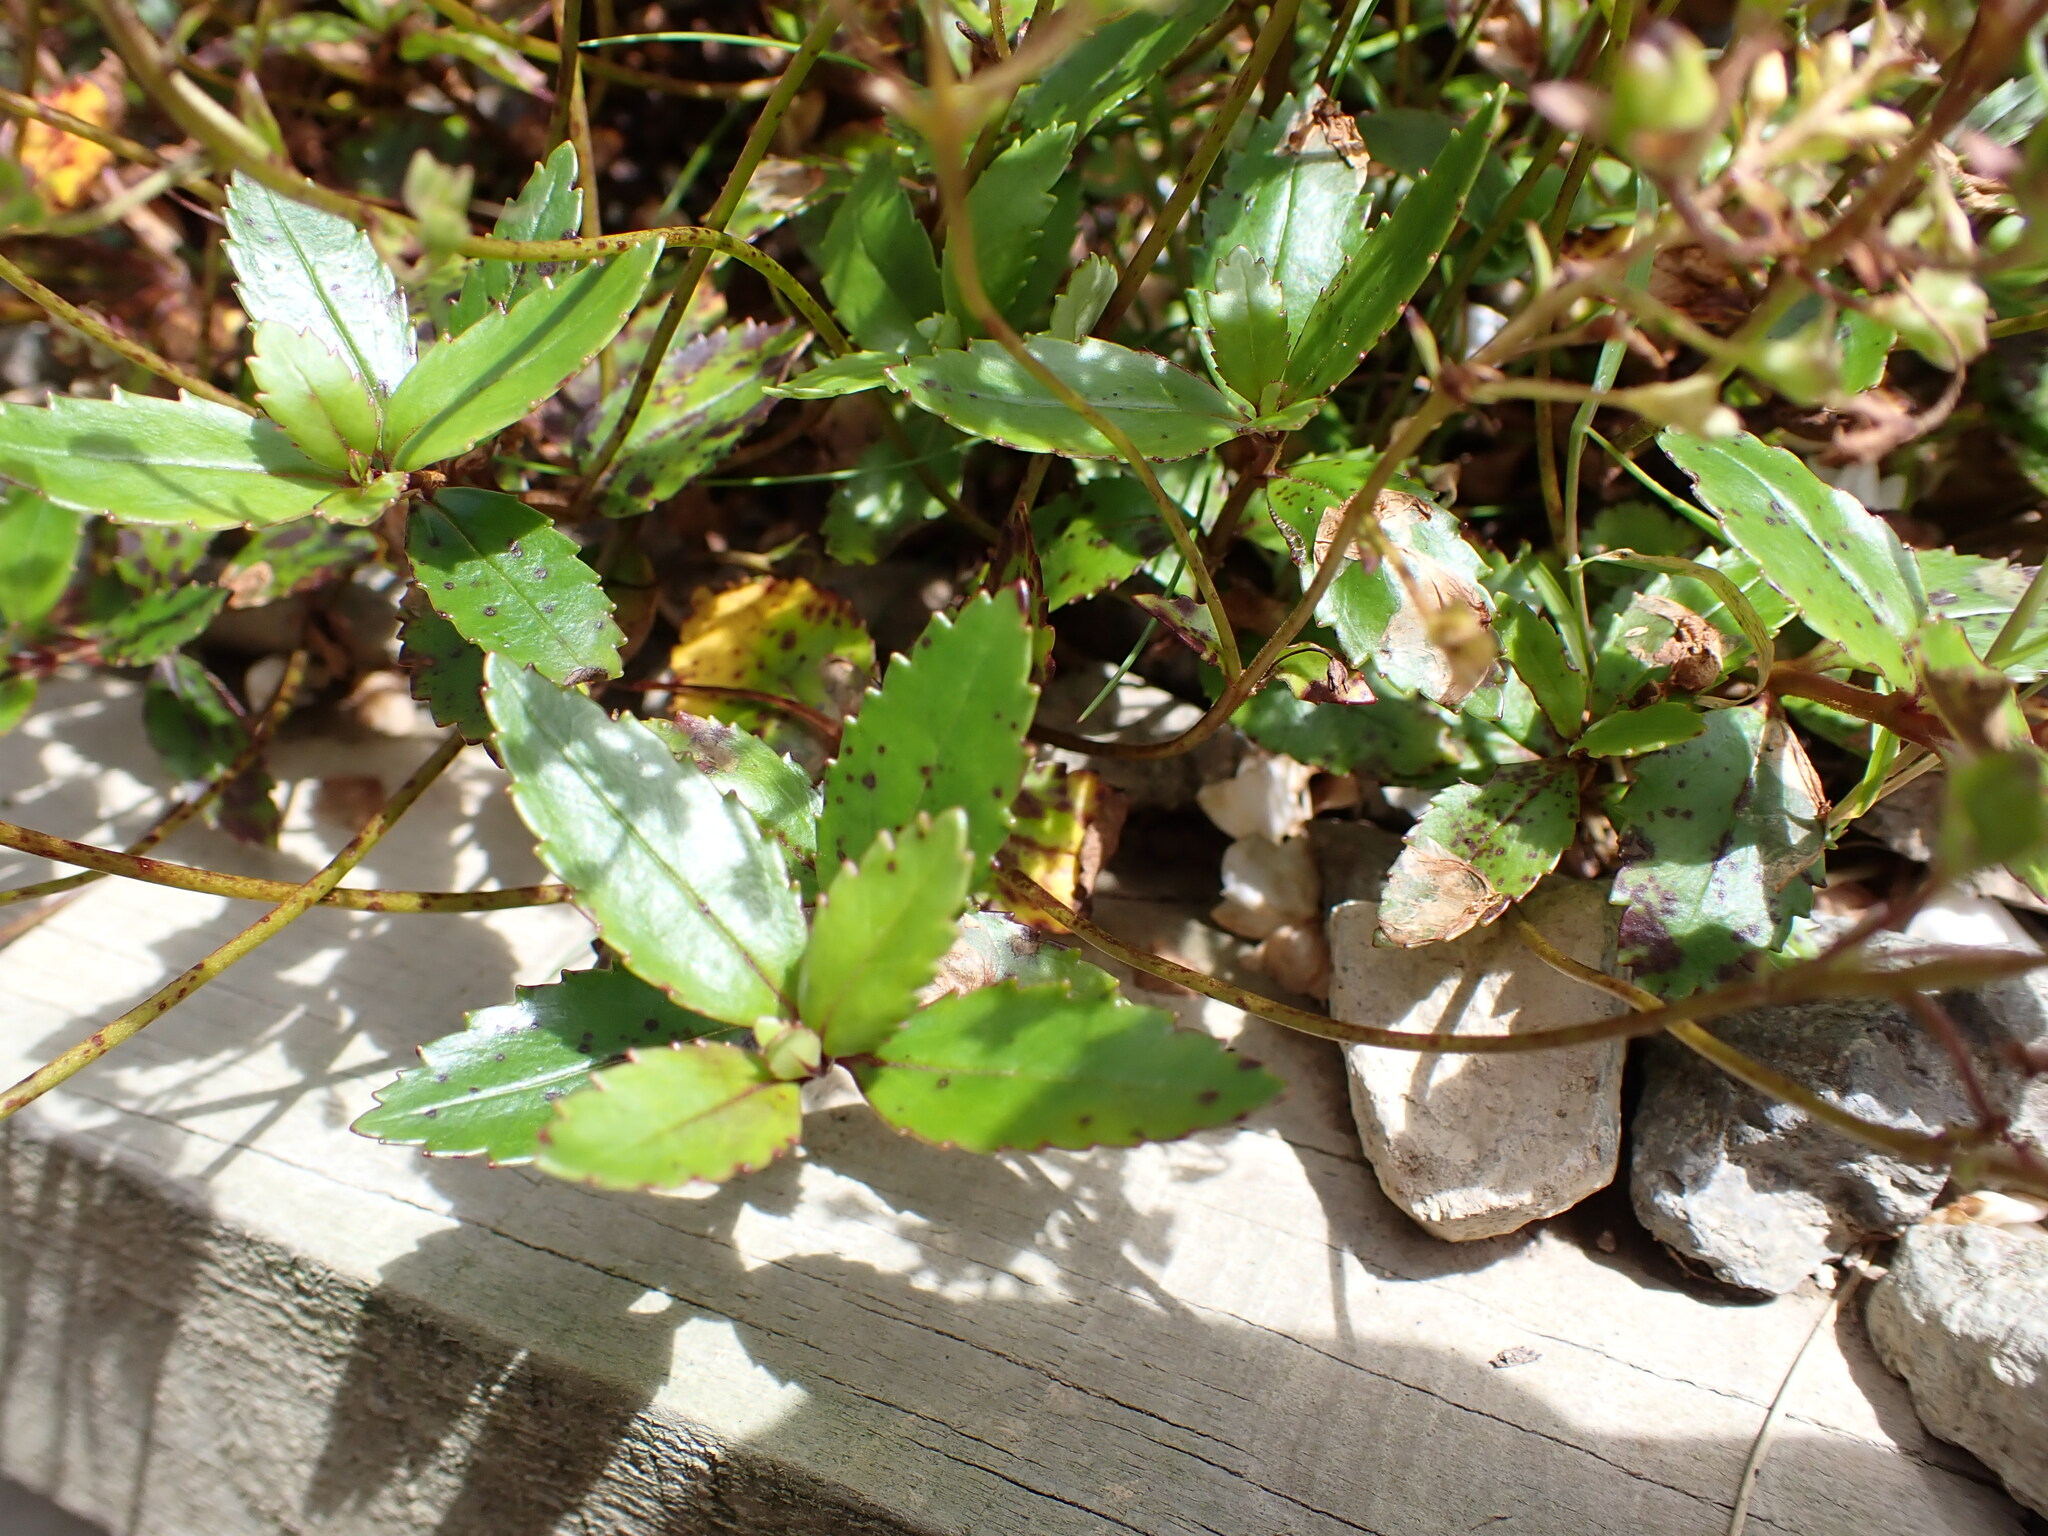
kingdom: Plantae
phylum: Tracheophyta
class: Magnoliopsida
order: Lamiales
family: Plantaginaceae
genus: Veronica
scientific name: Veronica lanceolata
